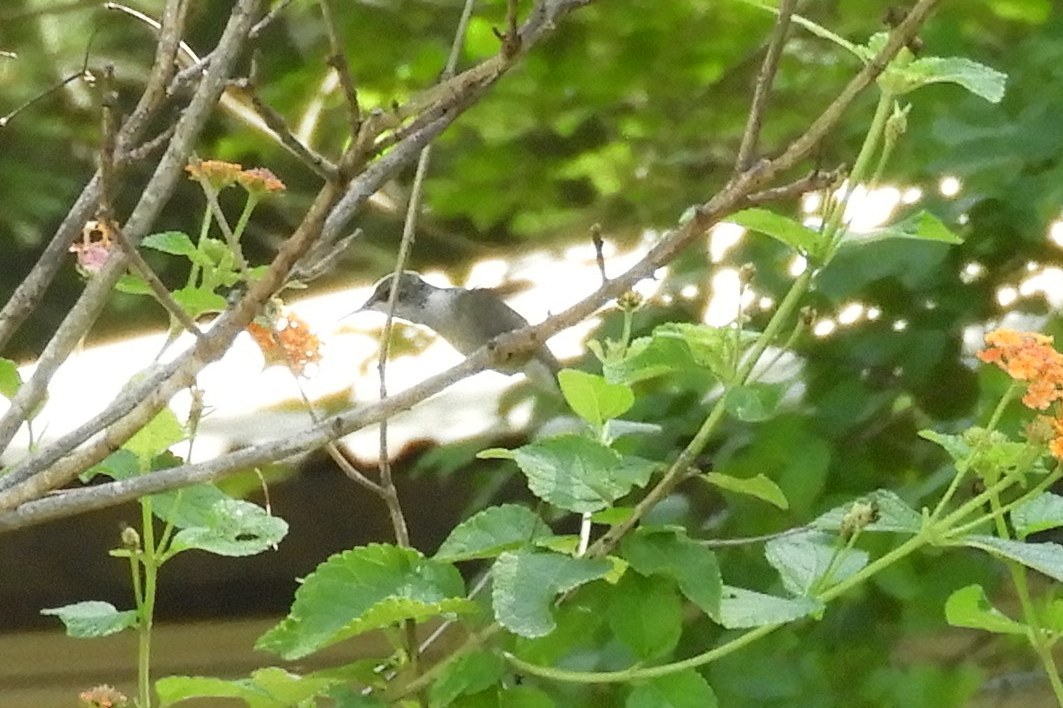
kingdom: Animalia
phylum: Chordata
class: Aves
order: Apodiformes
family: Trochilidae
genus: Archilochus
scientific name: Archilochus colubris
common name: Ruby-throated hummingbird
